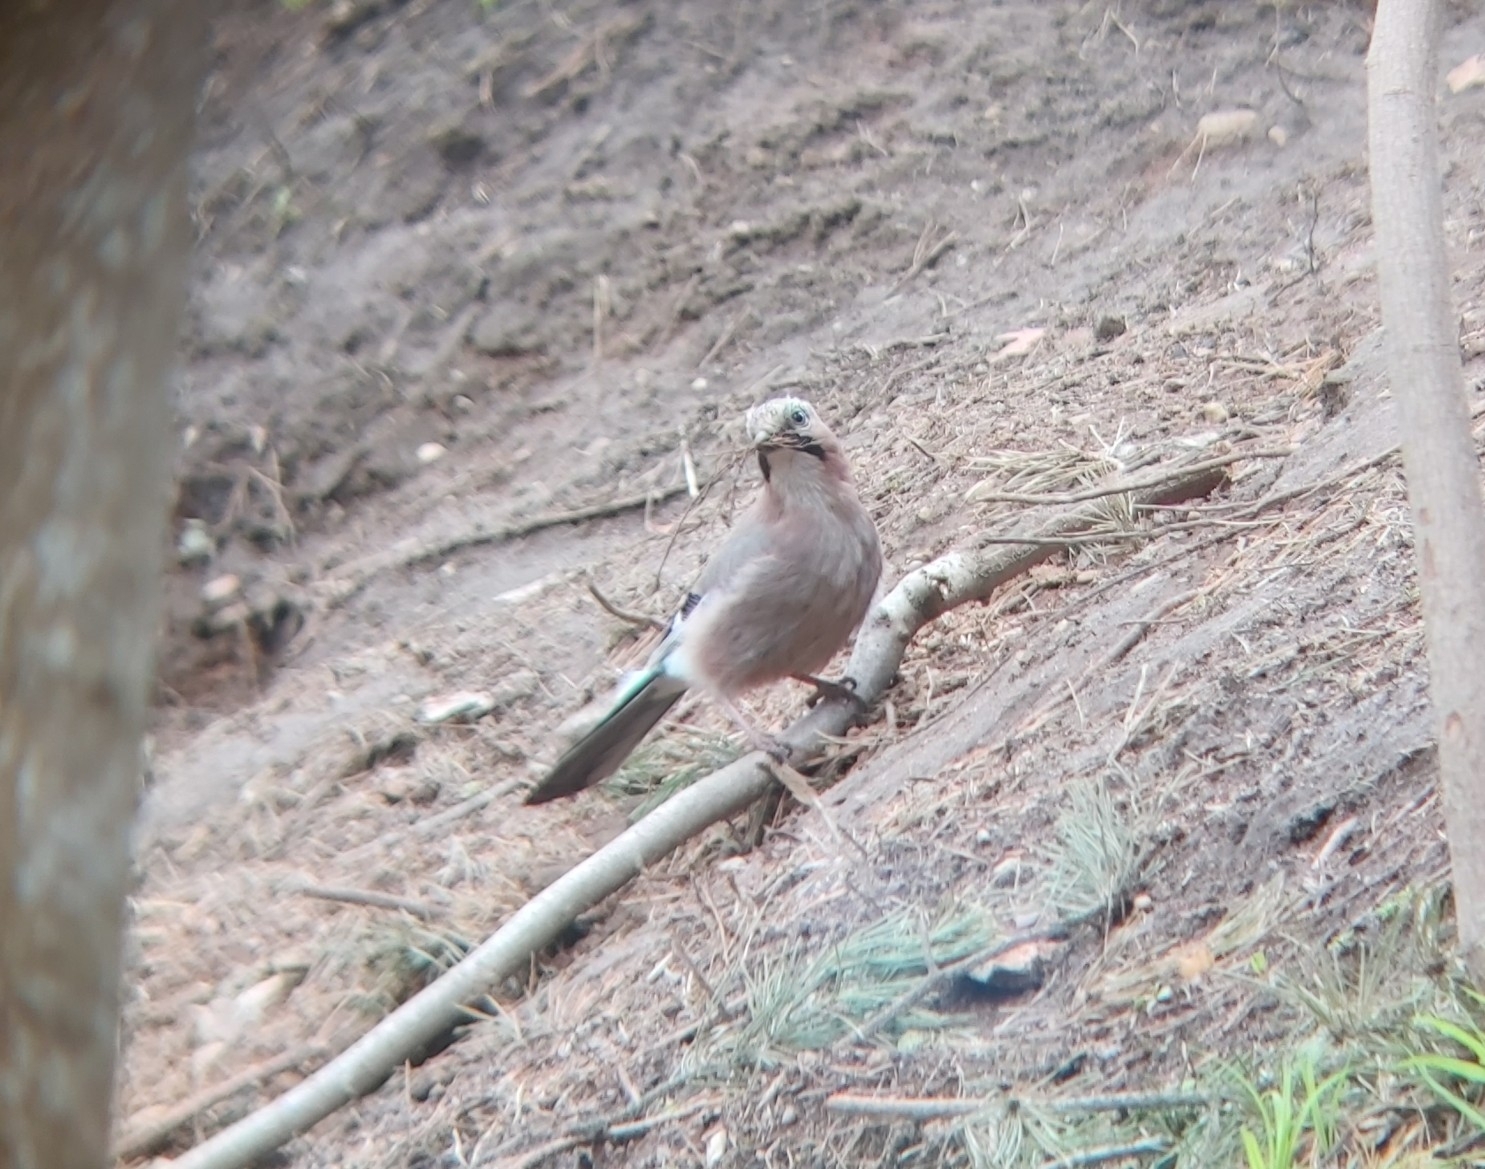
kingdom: Animalia
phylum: Chordata
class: Aves
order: Passeriformes
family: Corvidae
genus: Garrulus
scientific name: Garrulus glandarius
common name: Eurasian jay
